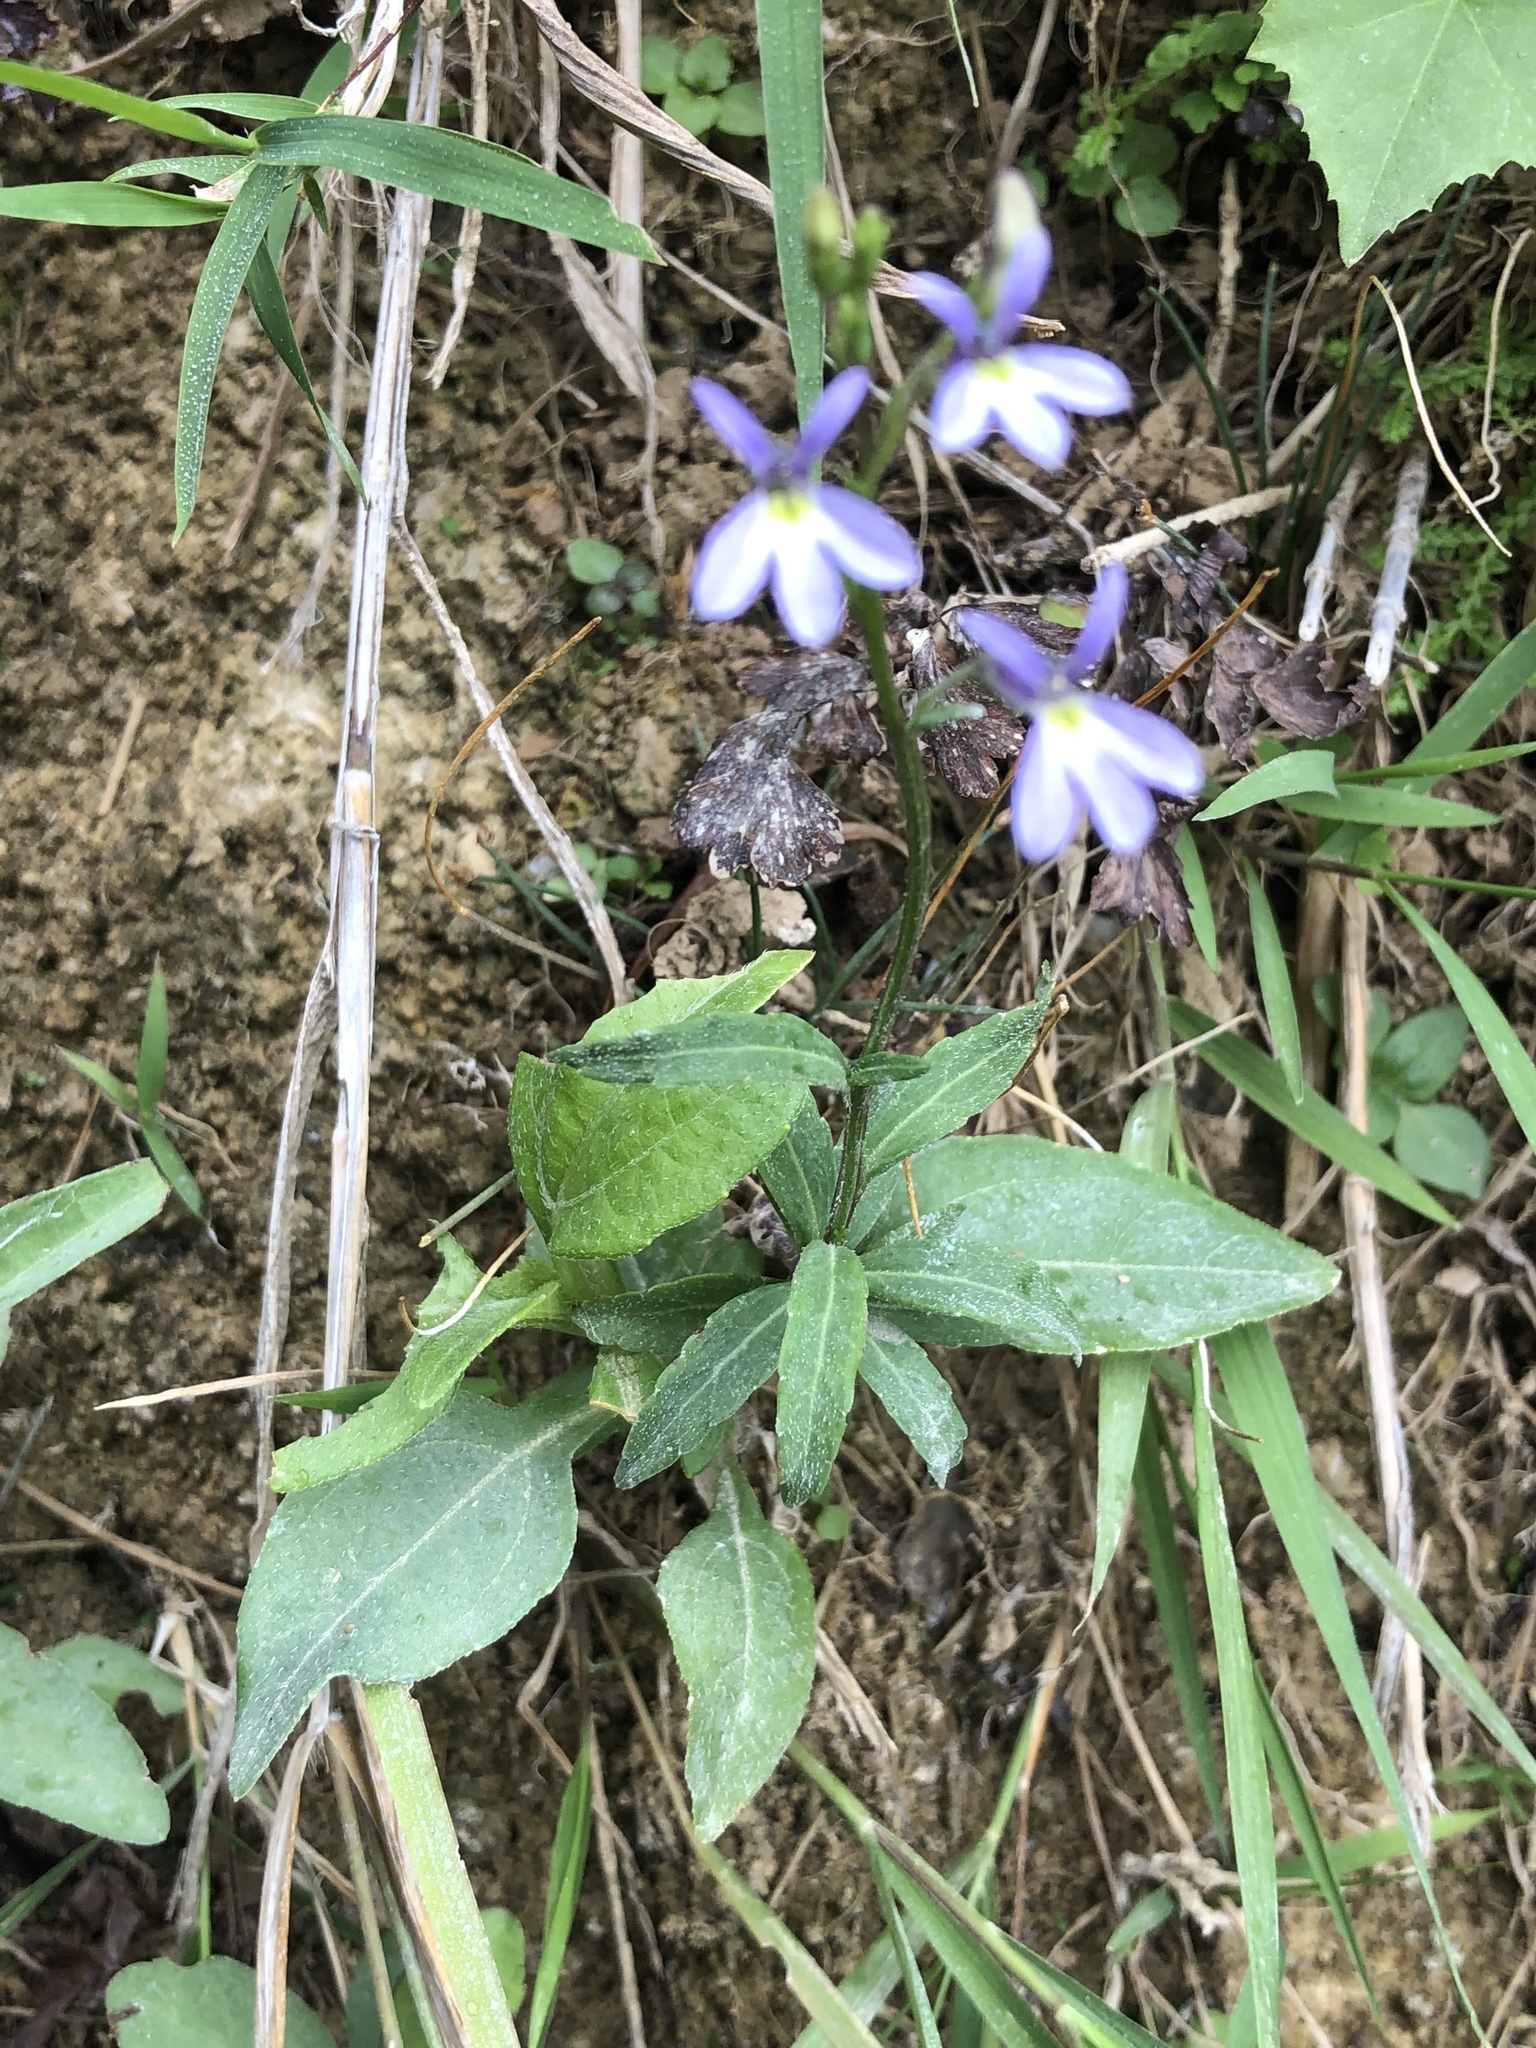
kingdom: Plantae
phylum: Tracheophyta
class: Magnoliopsida
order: Asterales
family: Campanulaceae
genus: Diastatea
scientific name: Diastatea micrantha
